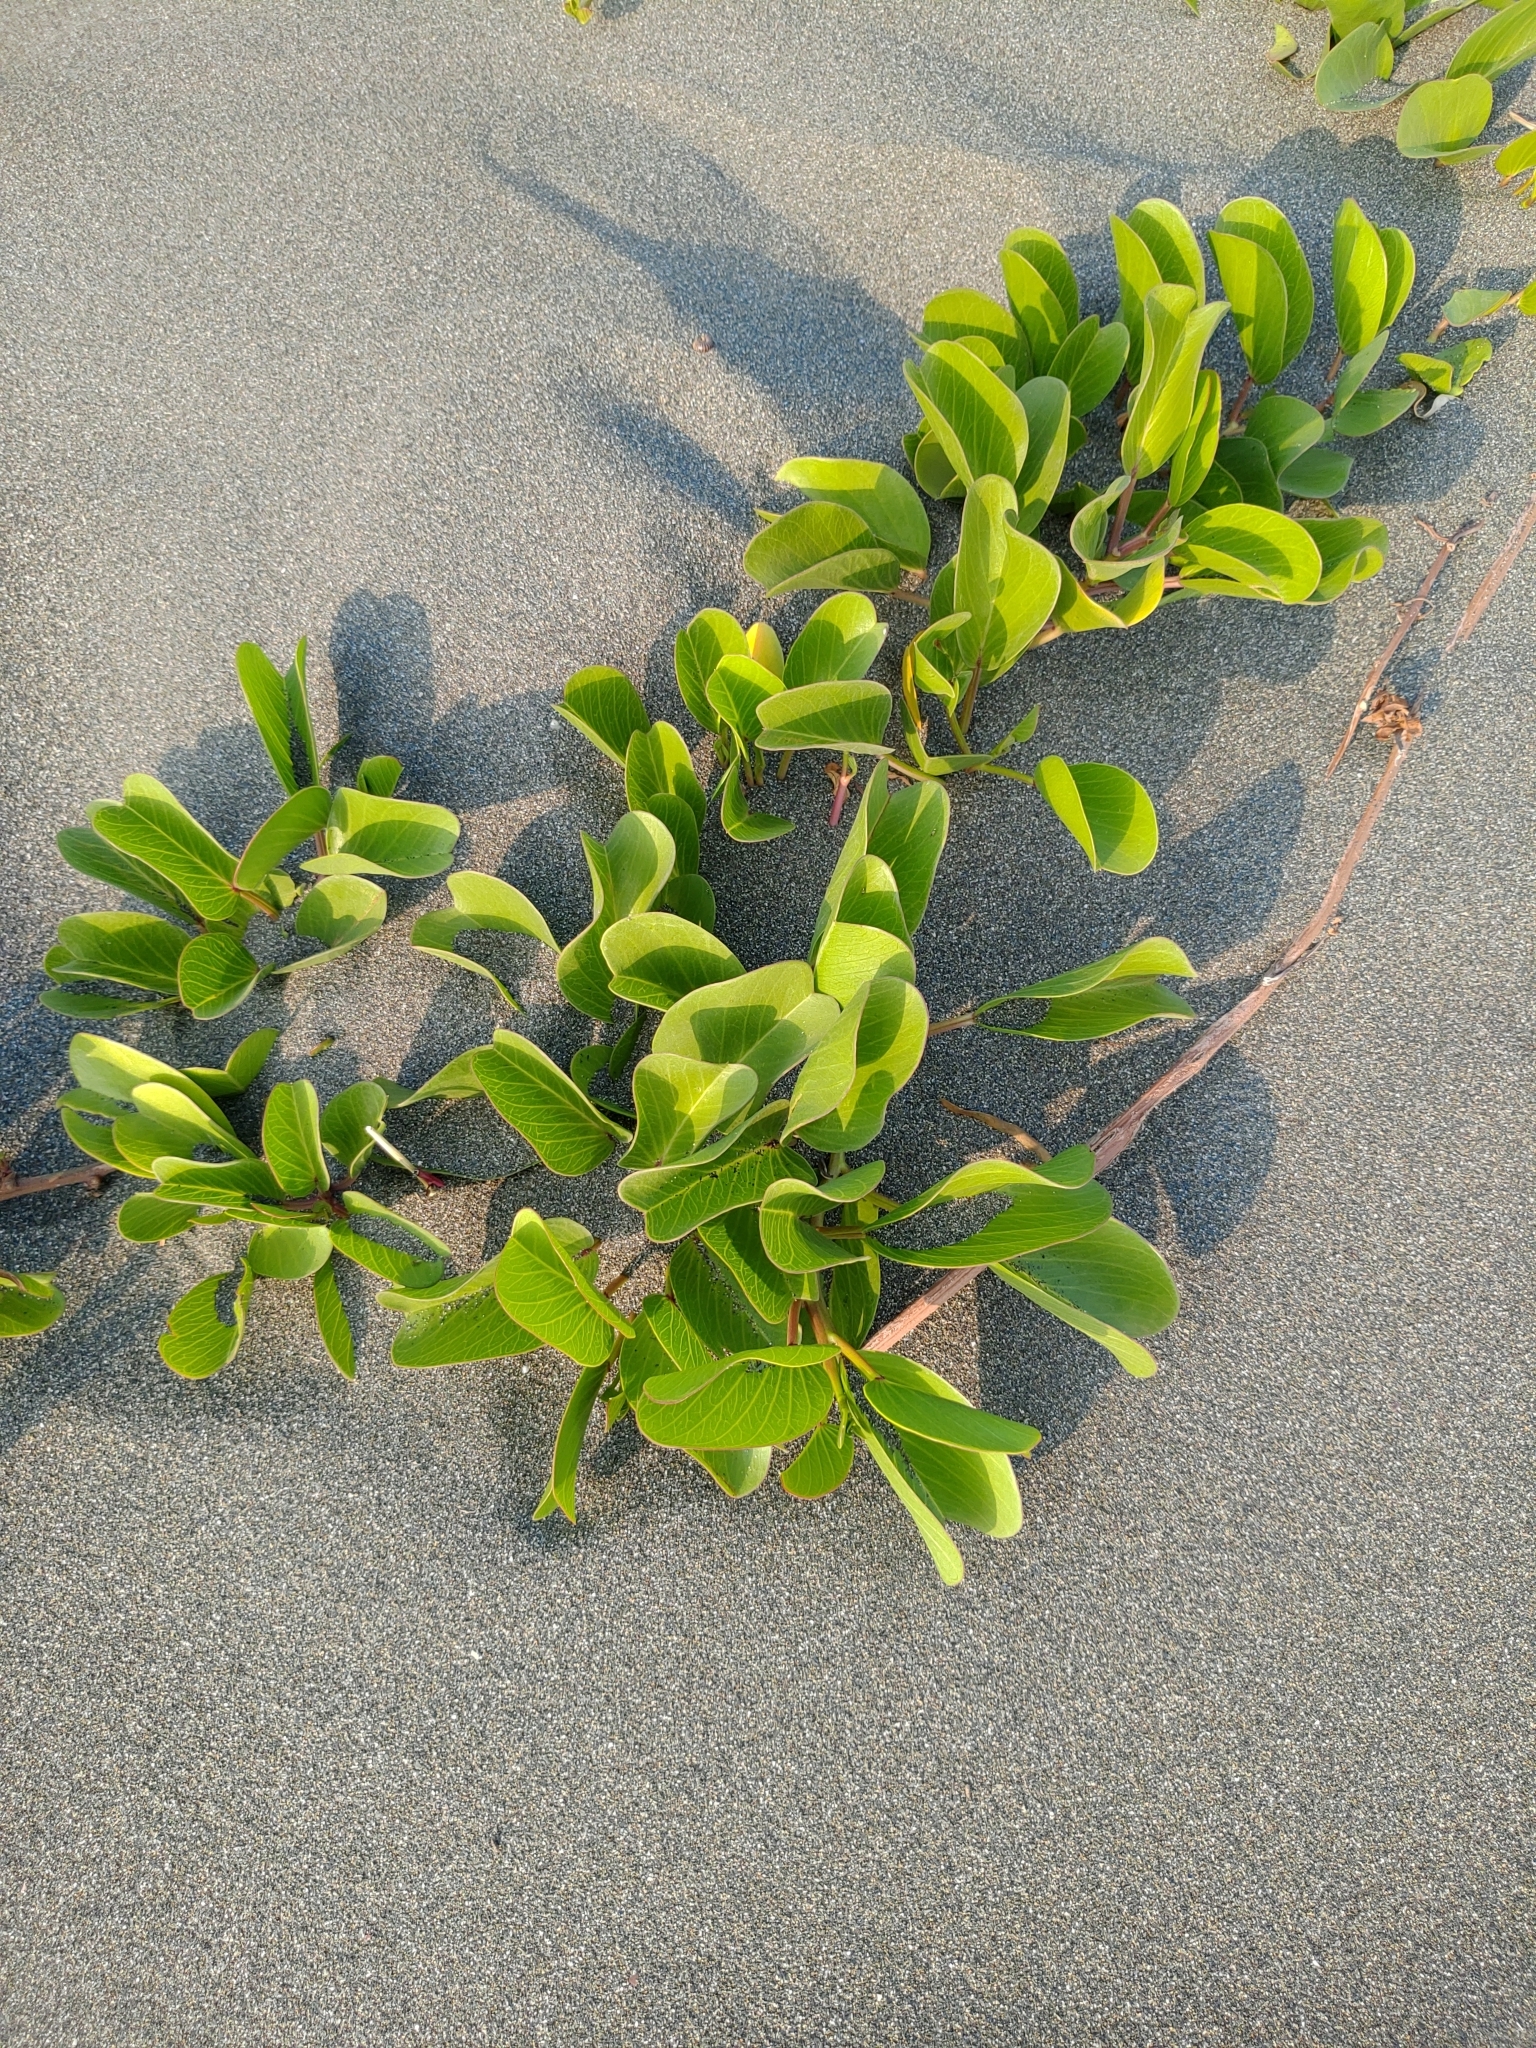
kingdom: Plantae
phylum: Tracheophyta
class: Magnoliopsida
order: Solanales
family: Convolvulaceae
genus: Ipomoea
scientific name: Ipomoea pes-caprae
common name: Beach morning glory
